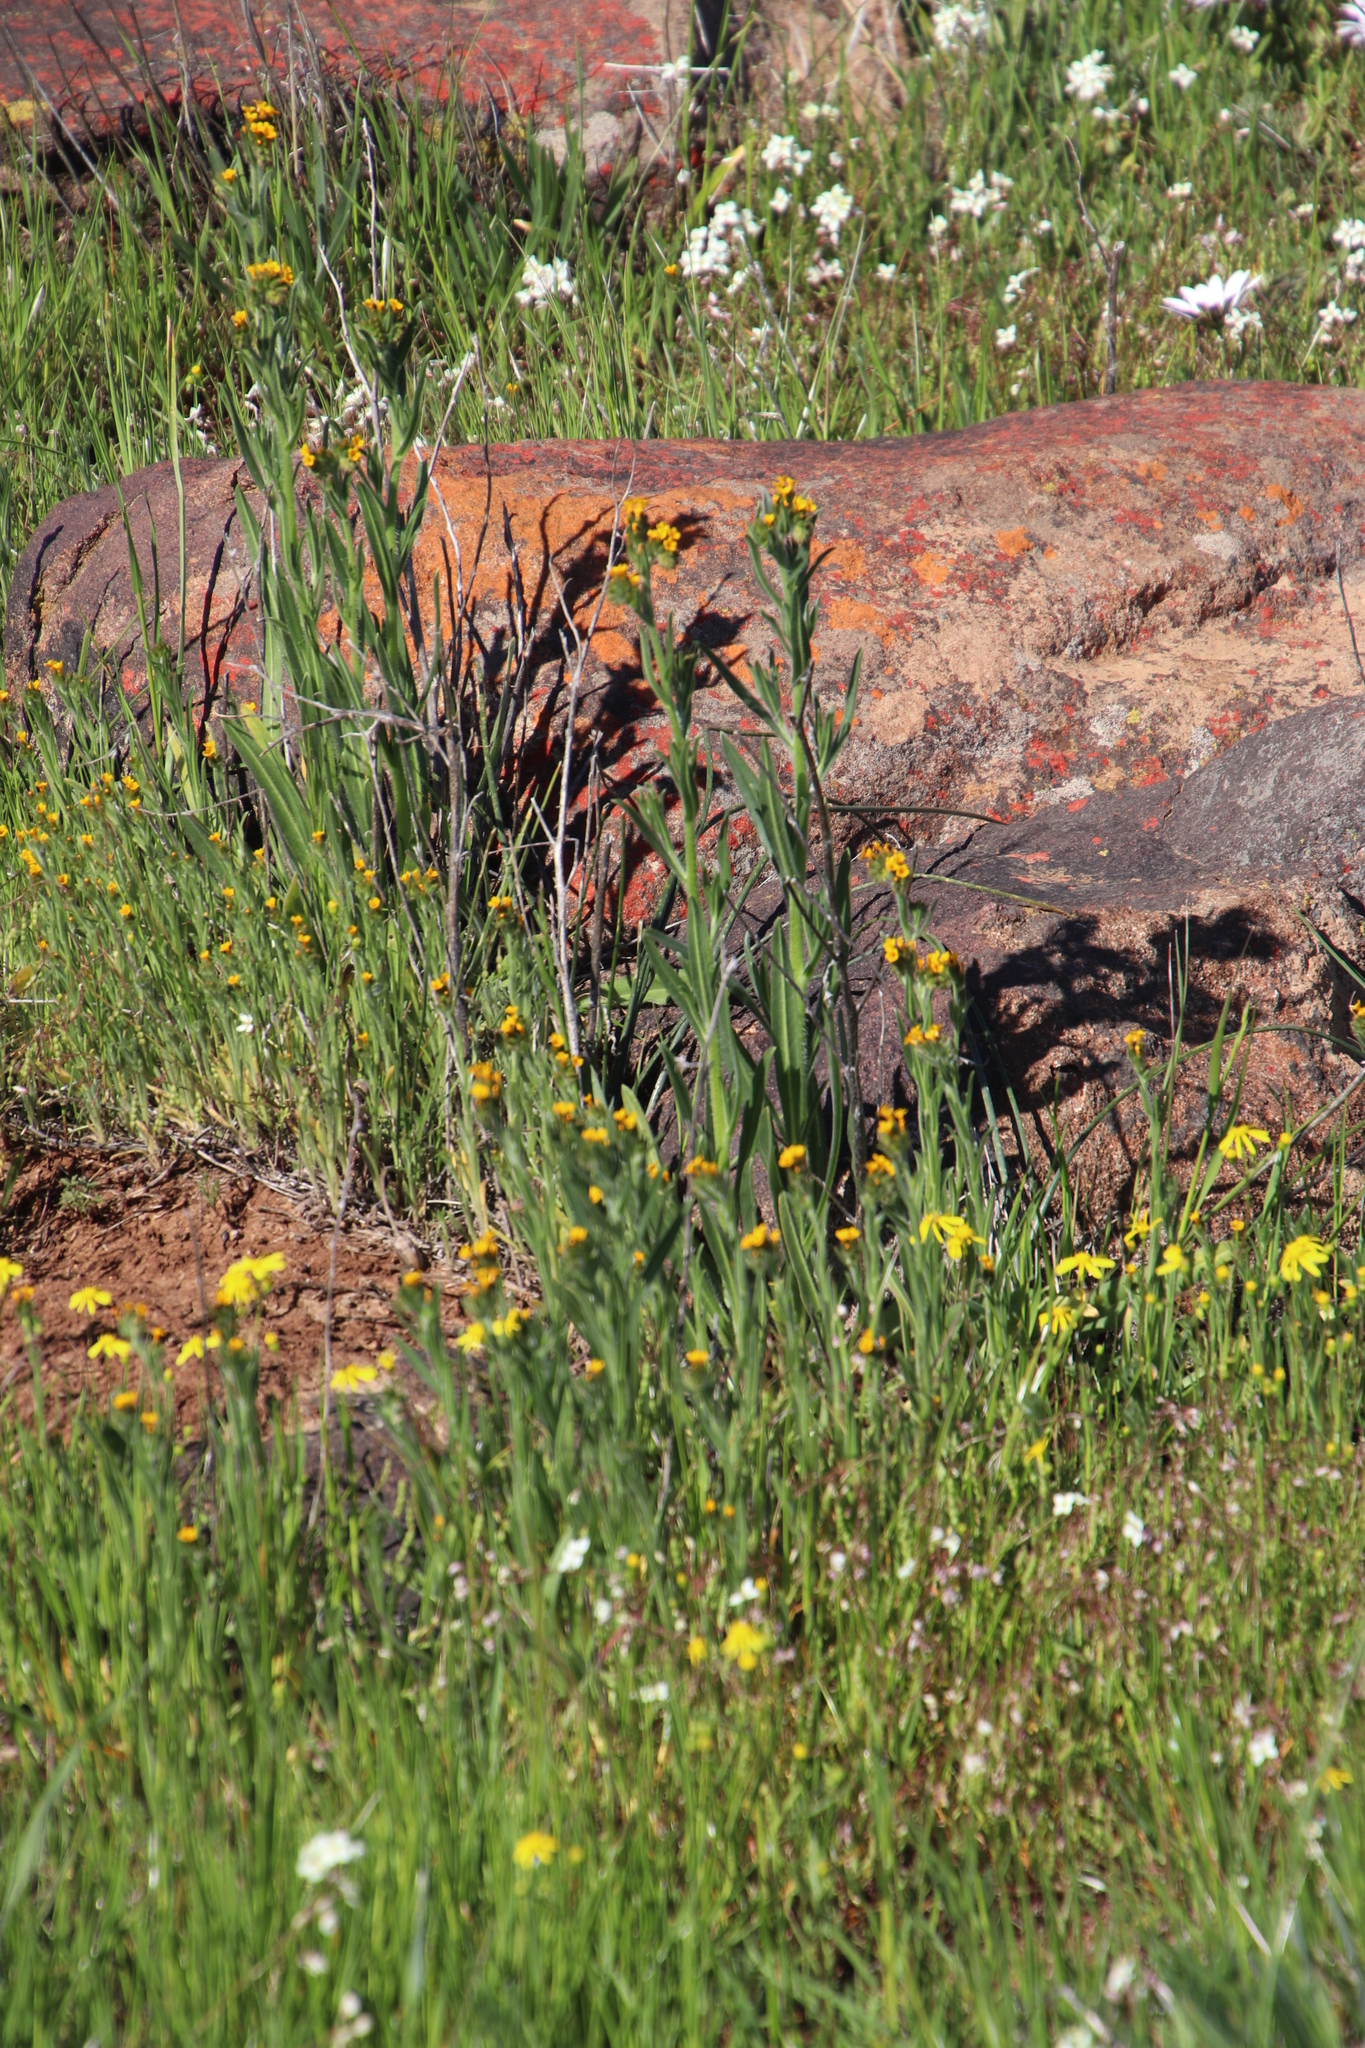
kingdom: Plantae
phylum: Tracheophyta
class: Magnoliopsida
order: Boraginales
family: Boraginaceae
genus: Amsinckia
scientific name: Amsinckia menziesii
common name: Menzies' fiddleneck
